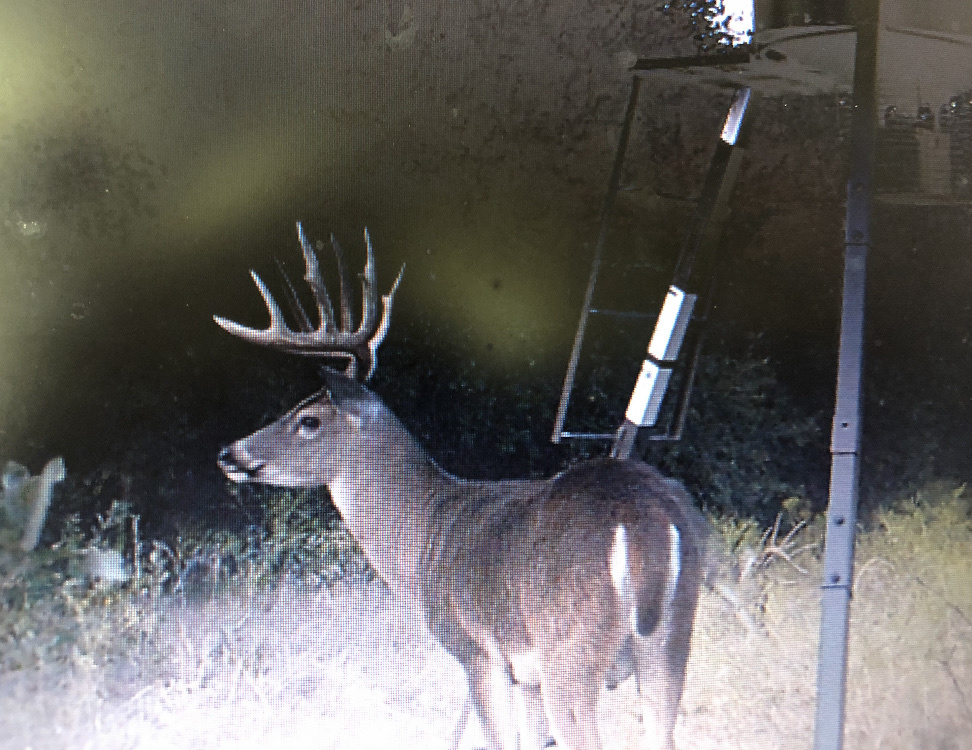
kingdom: Animalia
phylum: Chordata
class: Mammalia
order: Artiodactyla
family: Cervidae
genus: Odocoileus
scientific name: Odocoileus virginianus
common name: White-tailed deer
